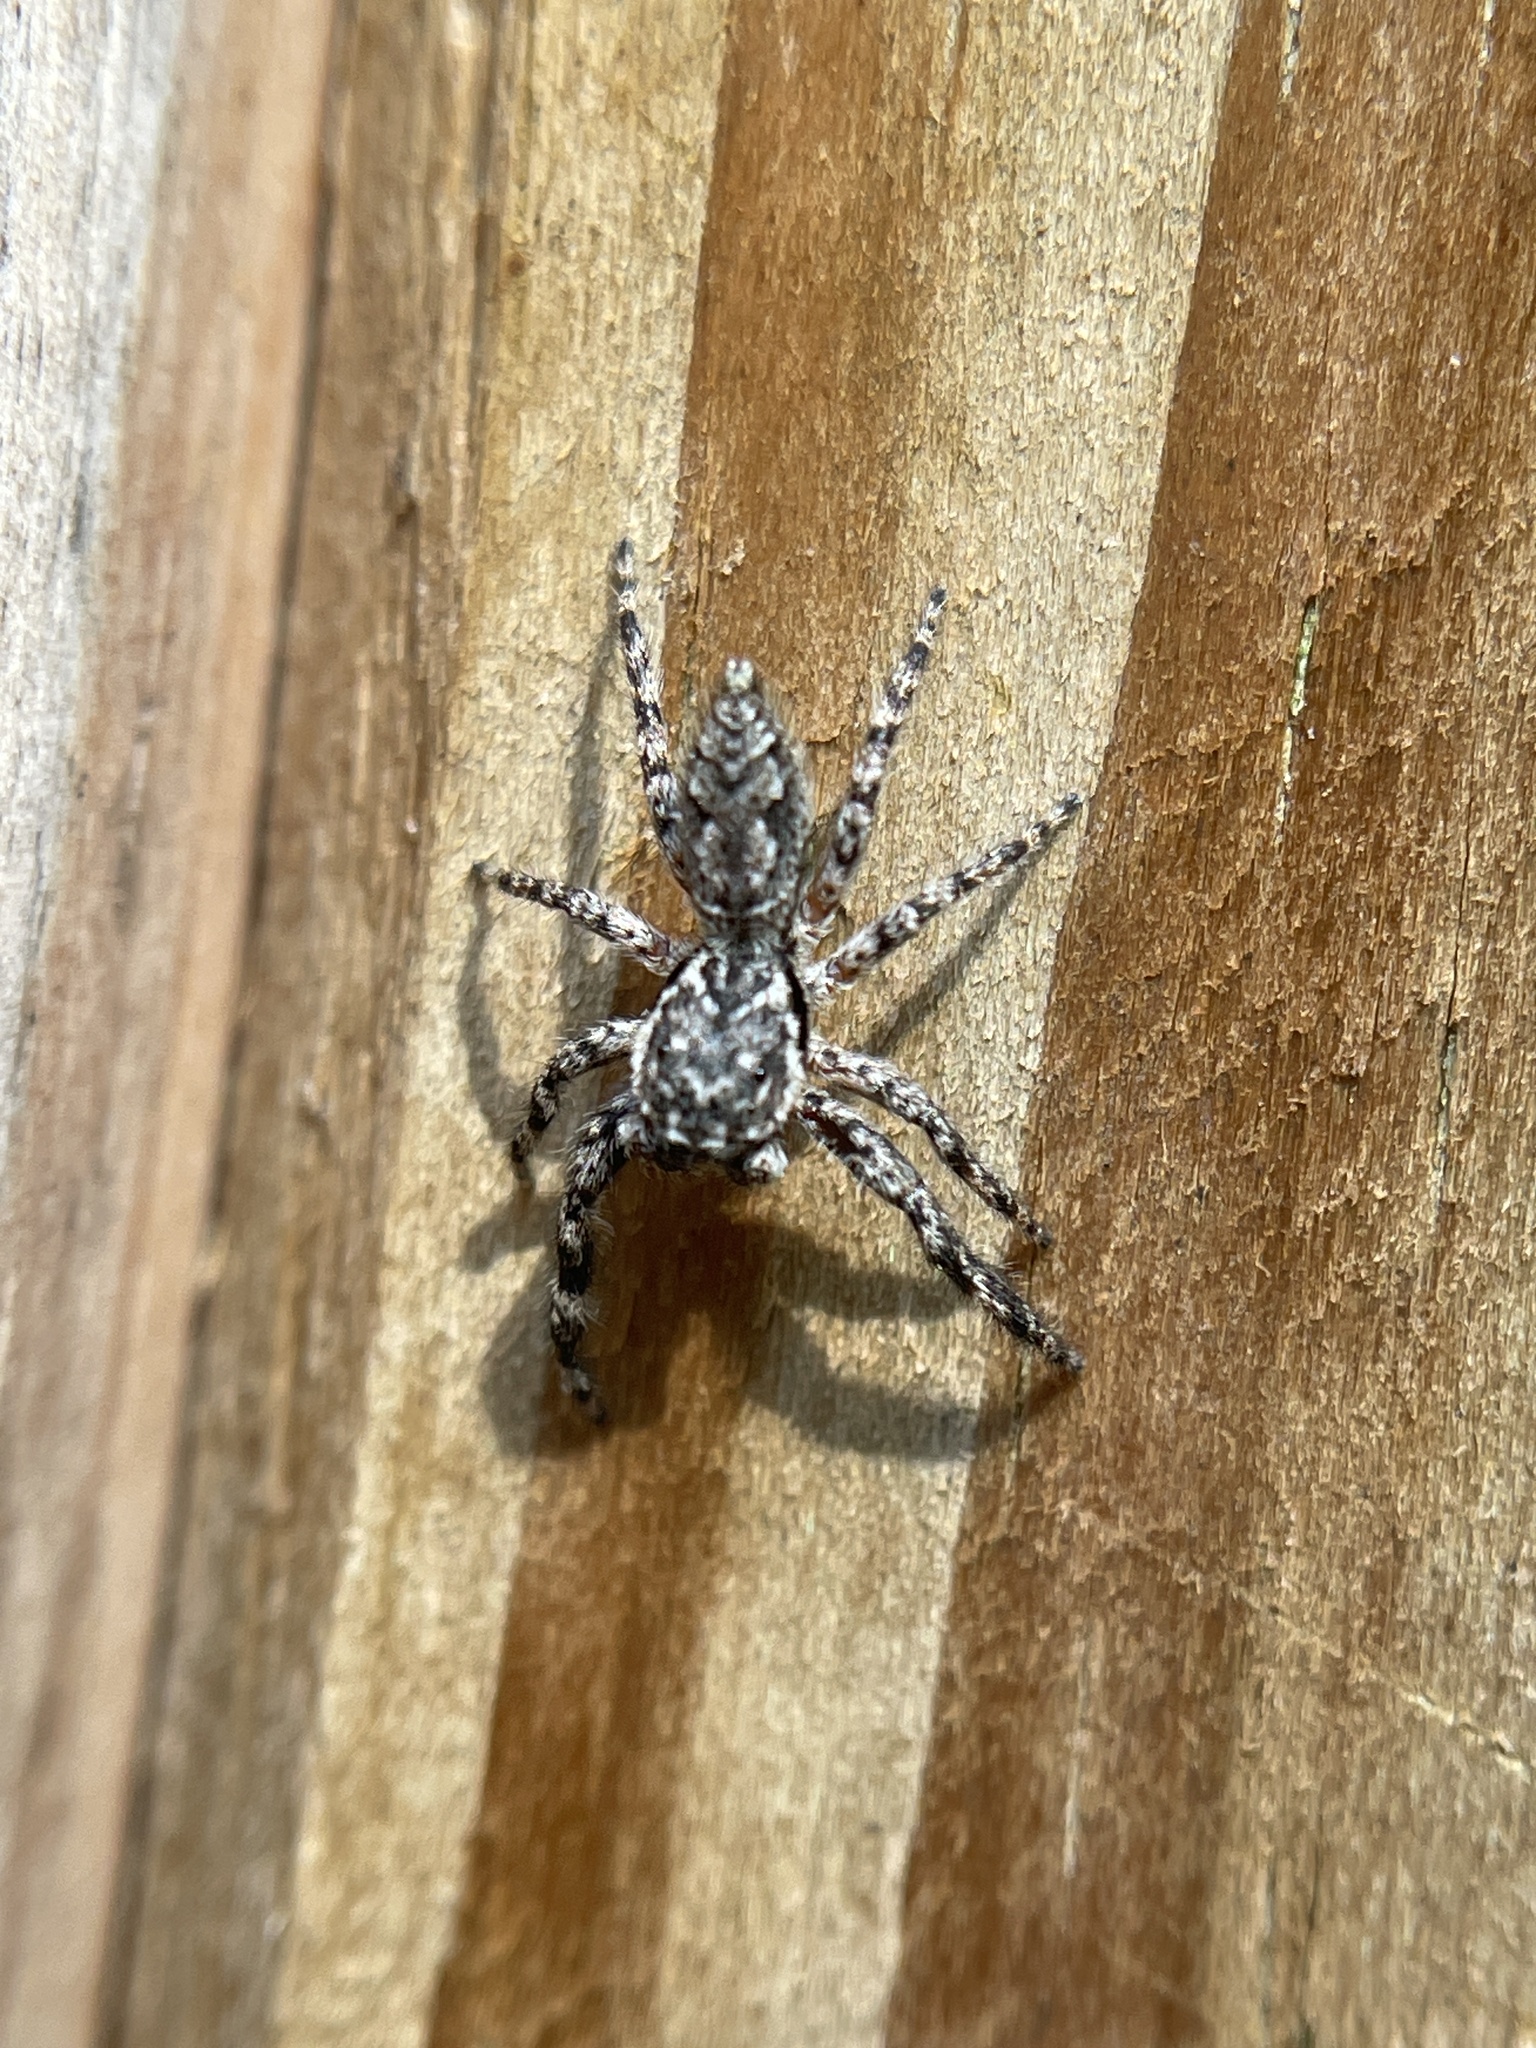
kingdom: Animalia
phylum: Arthropoda
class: Arachnida
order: Araneae
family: Salticidae
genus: Platycryptus
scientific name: Platycryptus undatus
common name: Tan jumping spider
